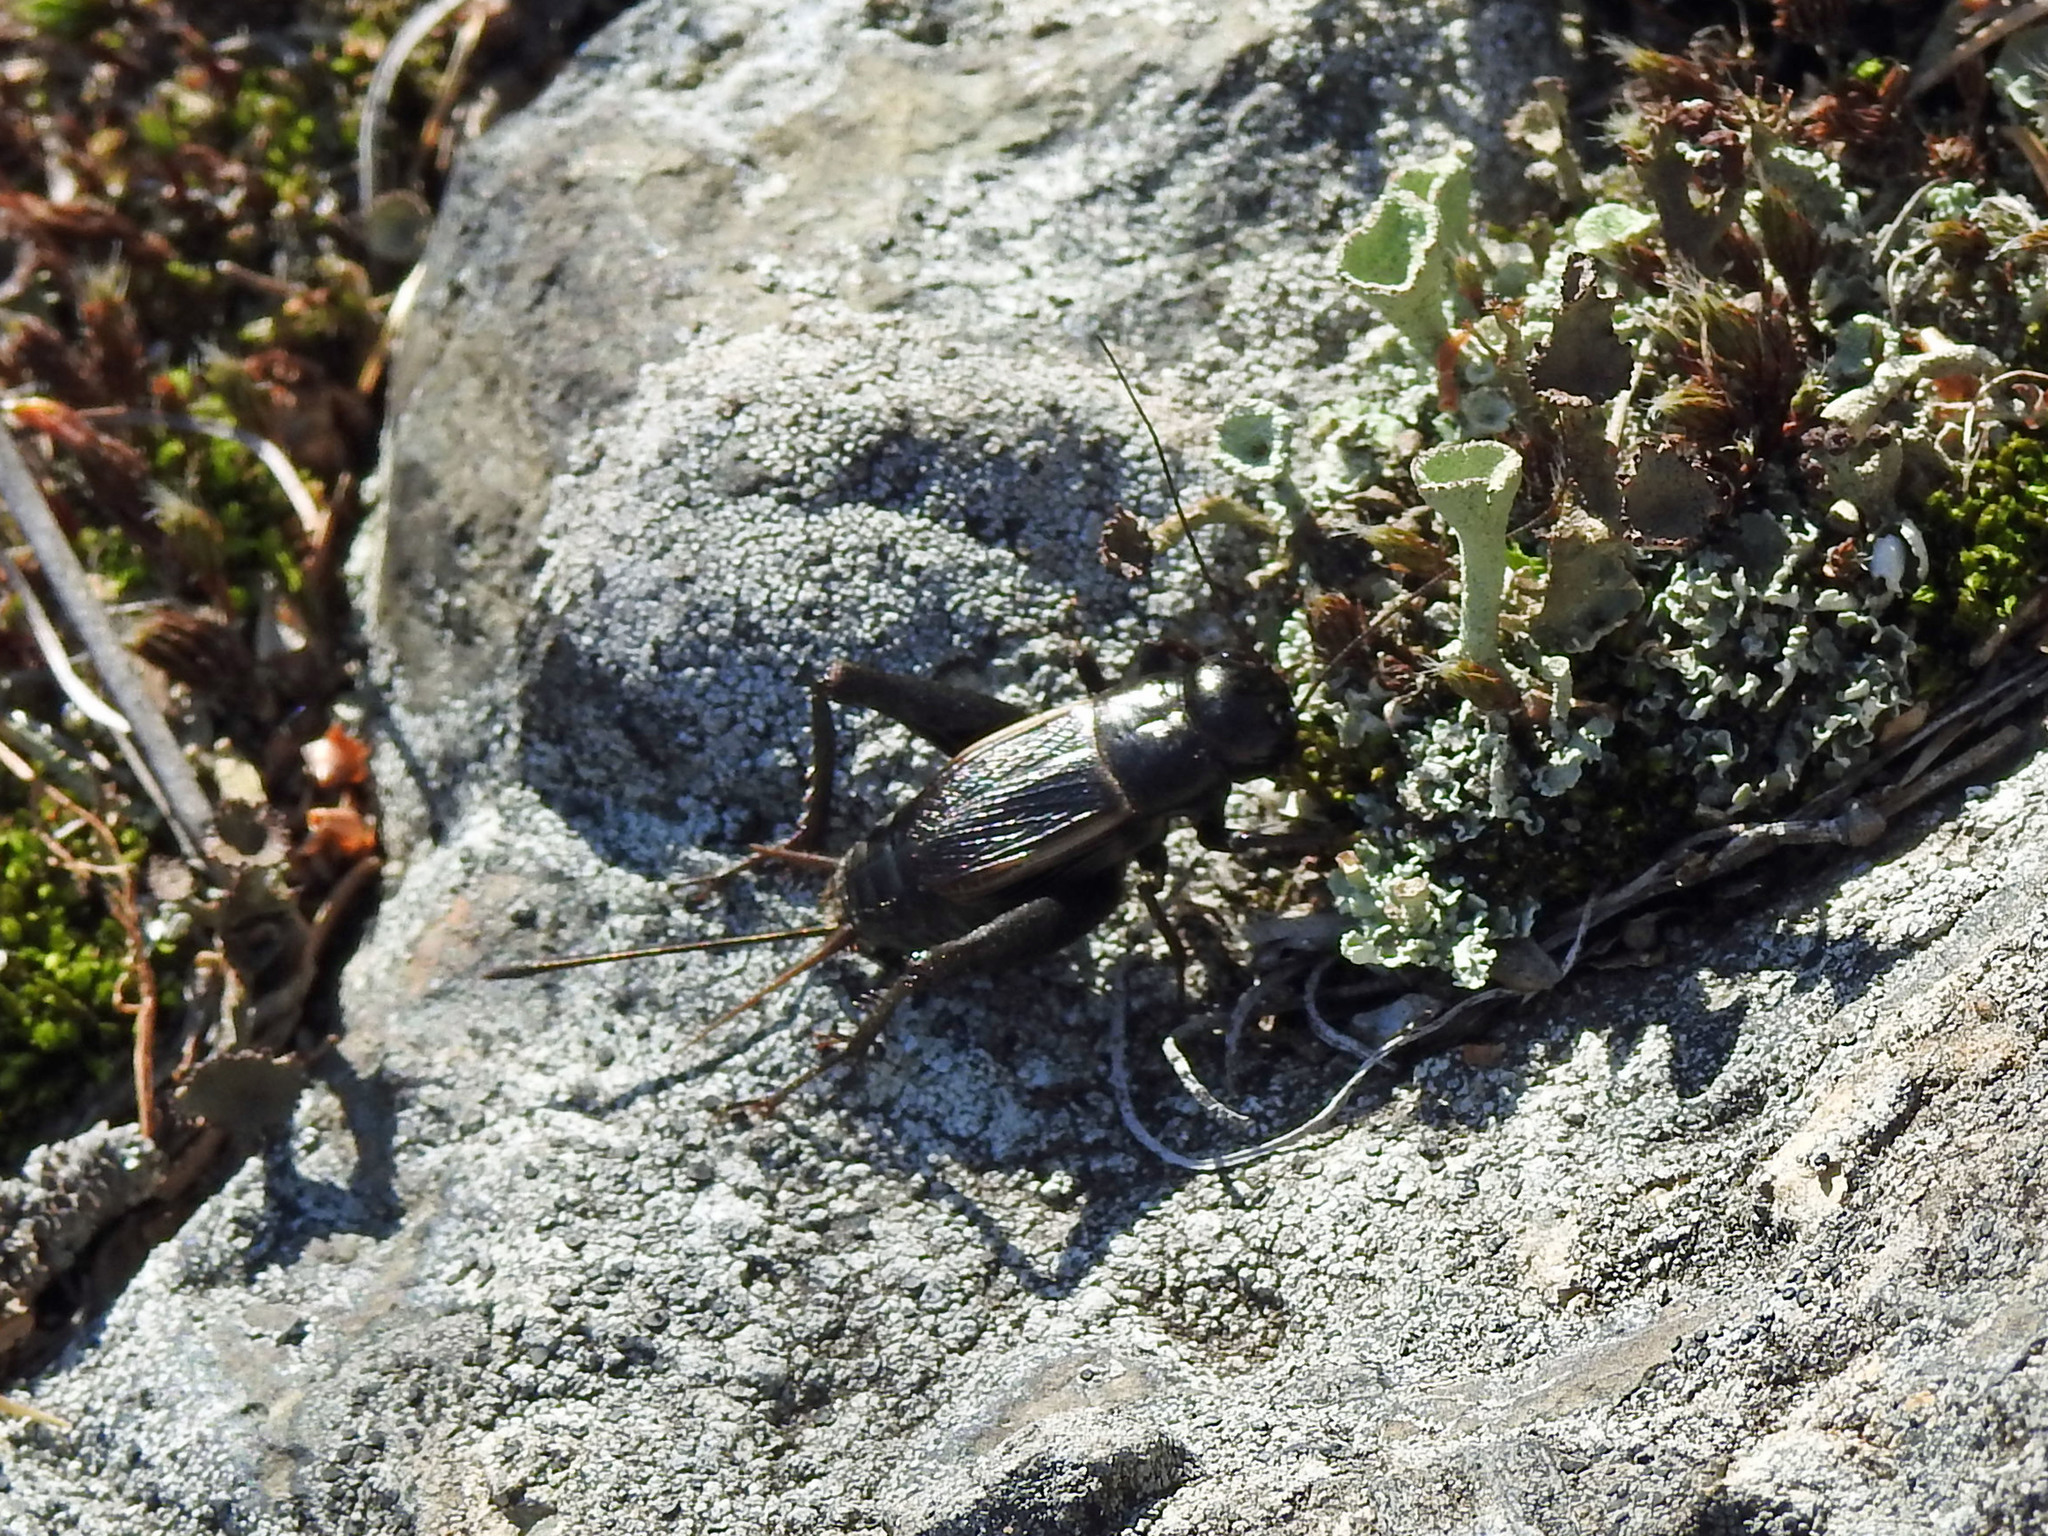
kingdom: Animalia
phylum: Arthropoda
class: Insecta
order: Orthoptera
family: Gryllidae
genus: Gryllus
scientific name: Gryllus pennsylvanicus
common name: Fall field cricket
